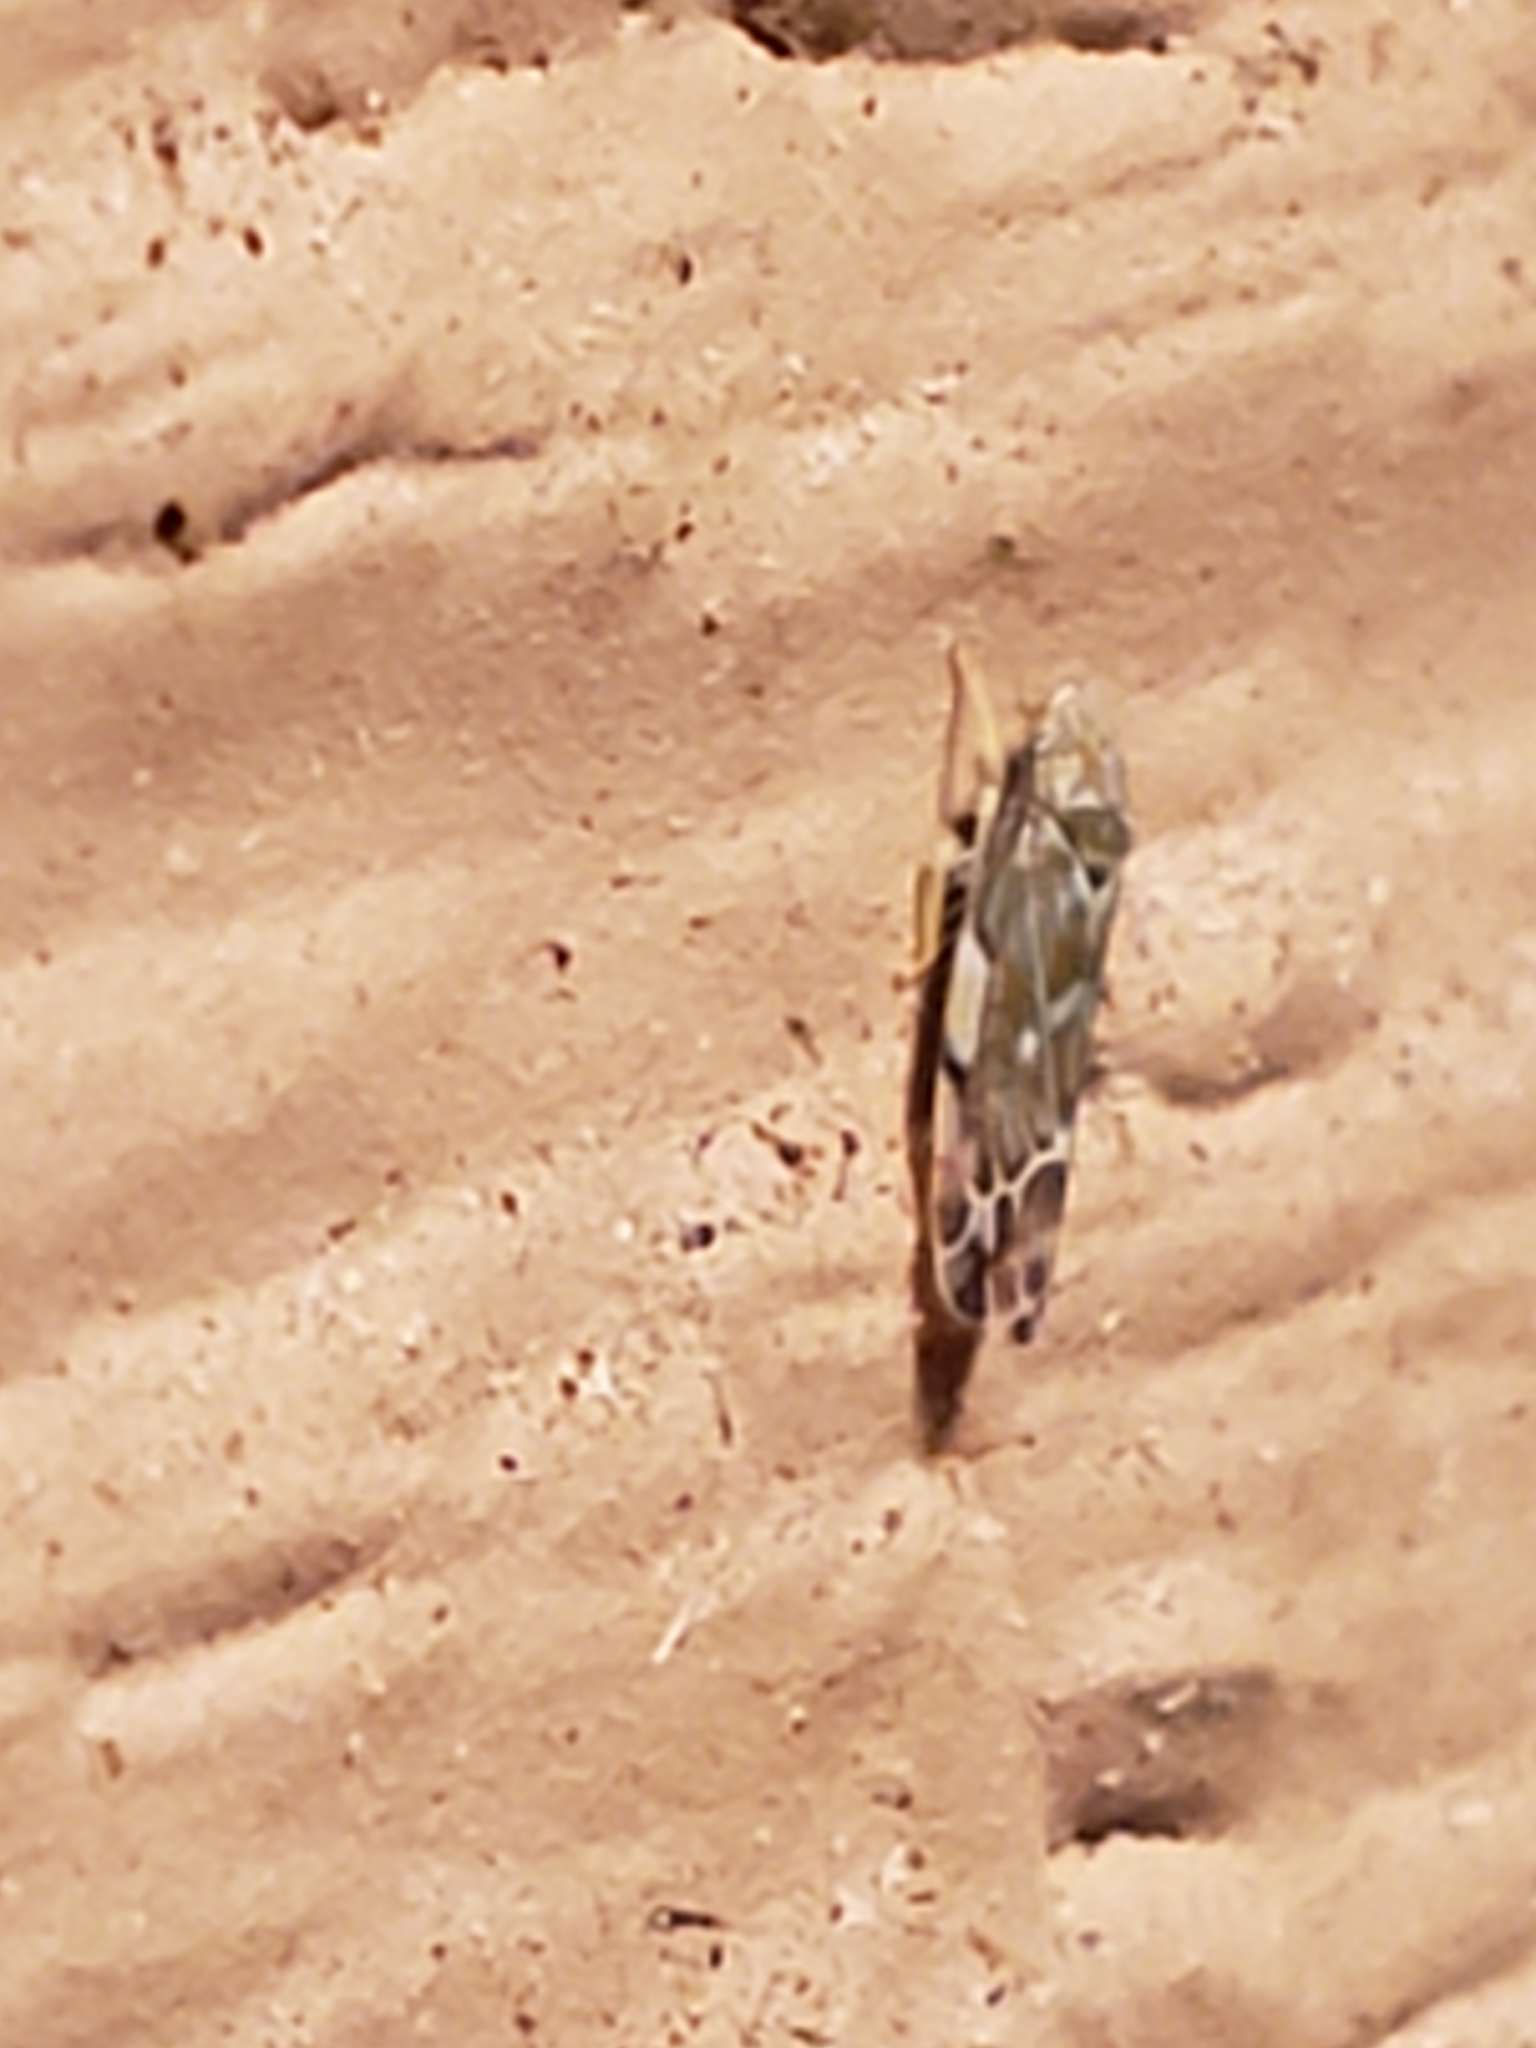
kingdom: Animalia
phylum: Arthropoda
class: Insecta
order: Hemiptera
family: Cicadellidae
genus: Erasmoneura
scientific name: Erasmoneura vulnerata
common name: The wounded leafhopper
